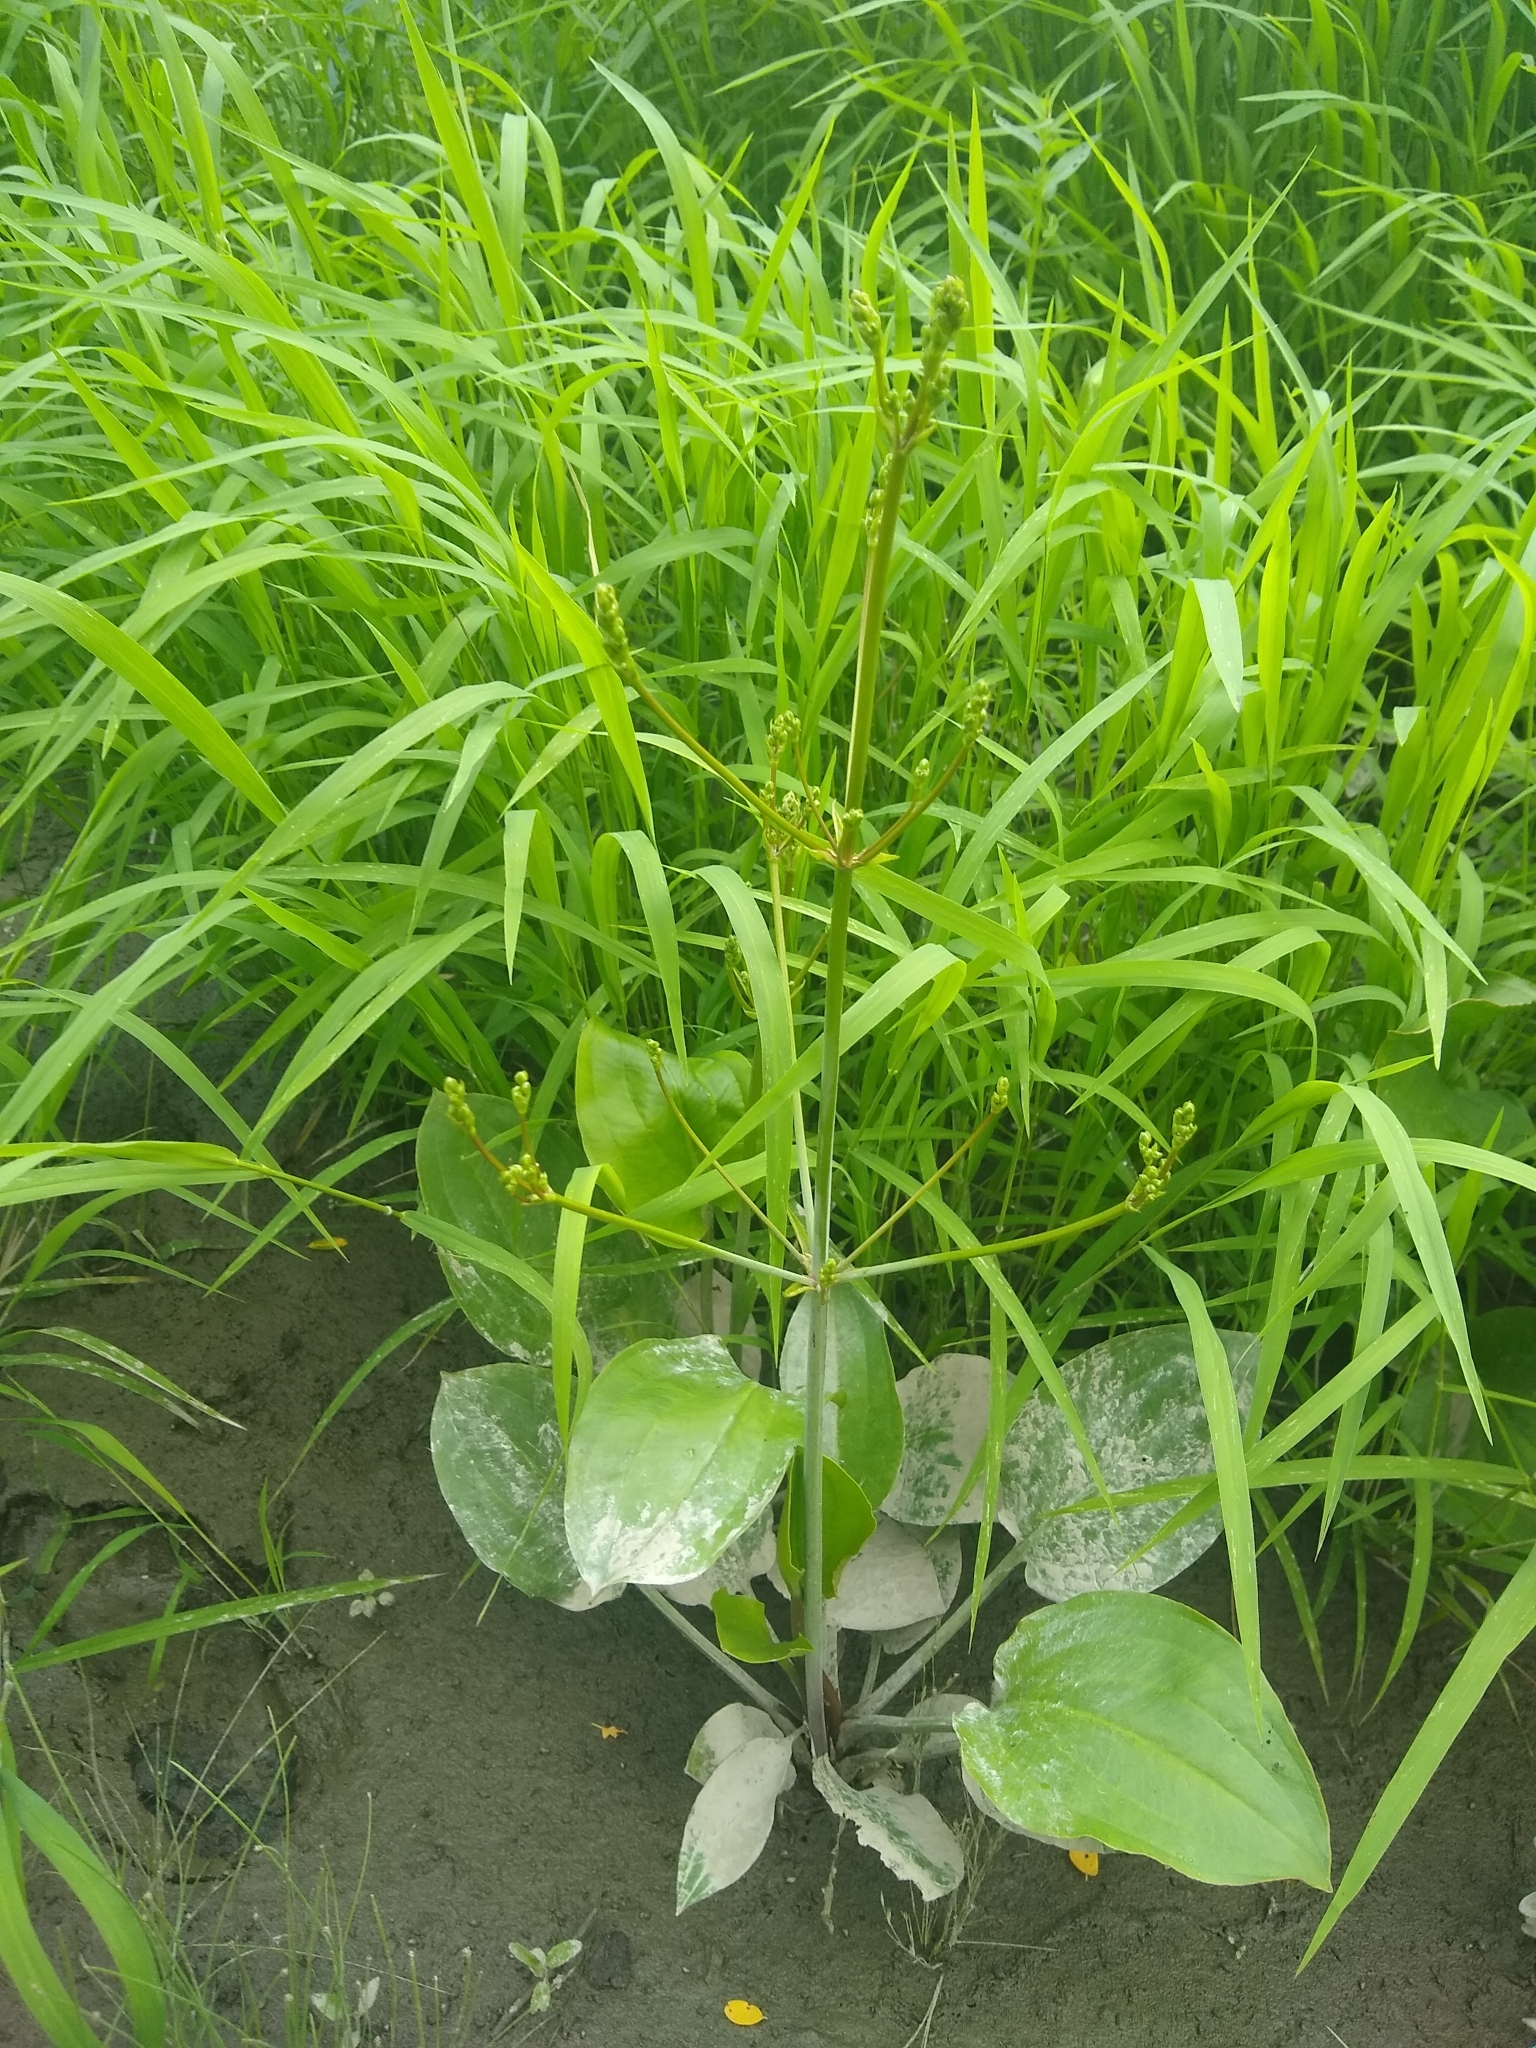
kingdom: Plantae
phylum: Tracheophyta
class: Liliopsida
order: Alismatales
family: Alismataceae
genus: Alisma
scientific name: Alisma triviale
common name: Northern water-plantain
